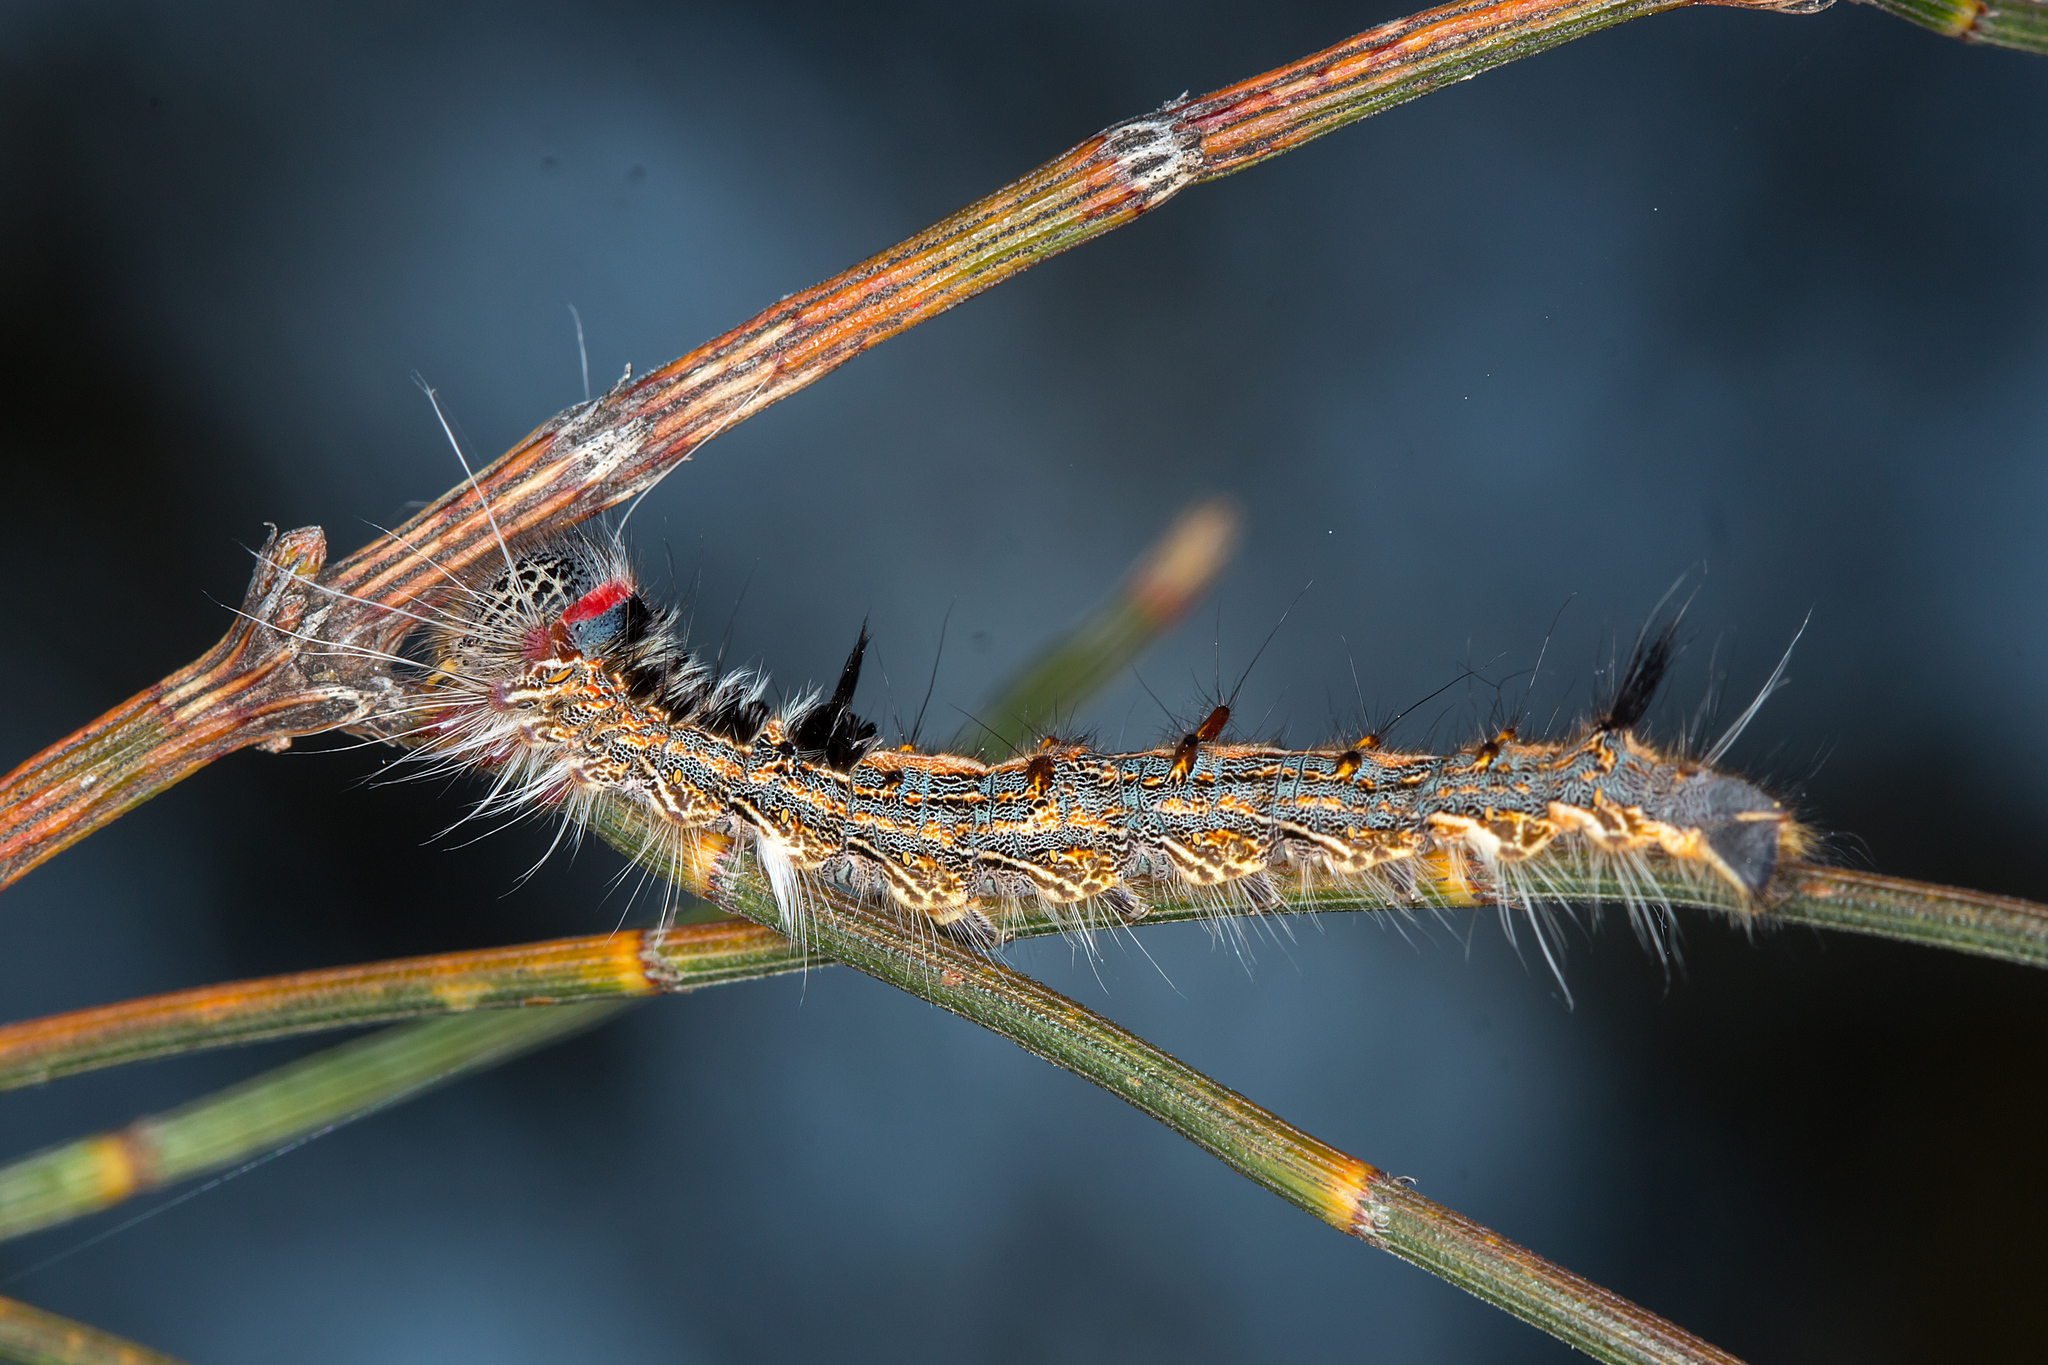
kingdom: Animalia
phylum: Arthropoda
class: Insecta
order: Lepidoptera
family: Lasiocampidae
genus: Pernattia
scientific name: Pernattia pusilla
